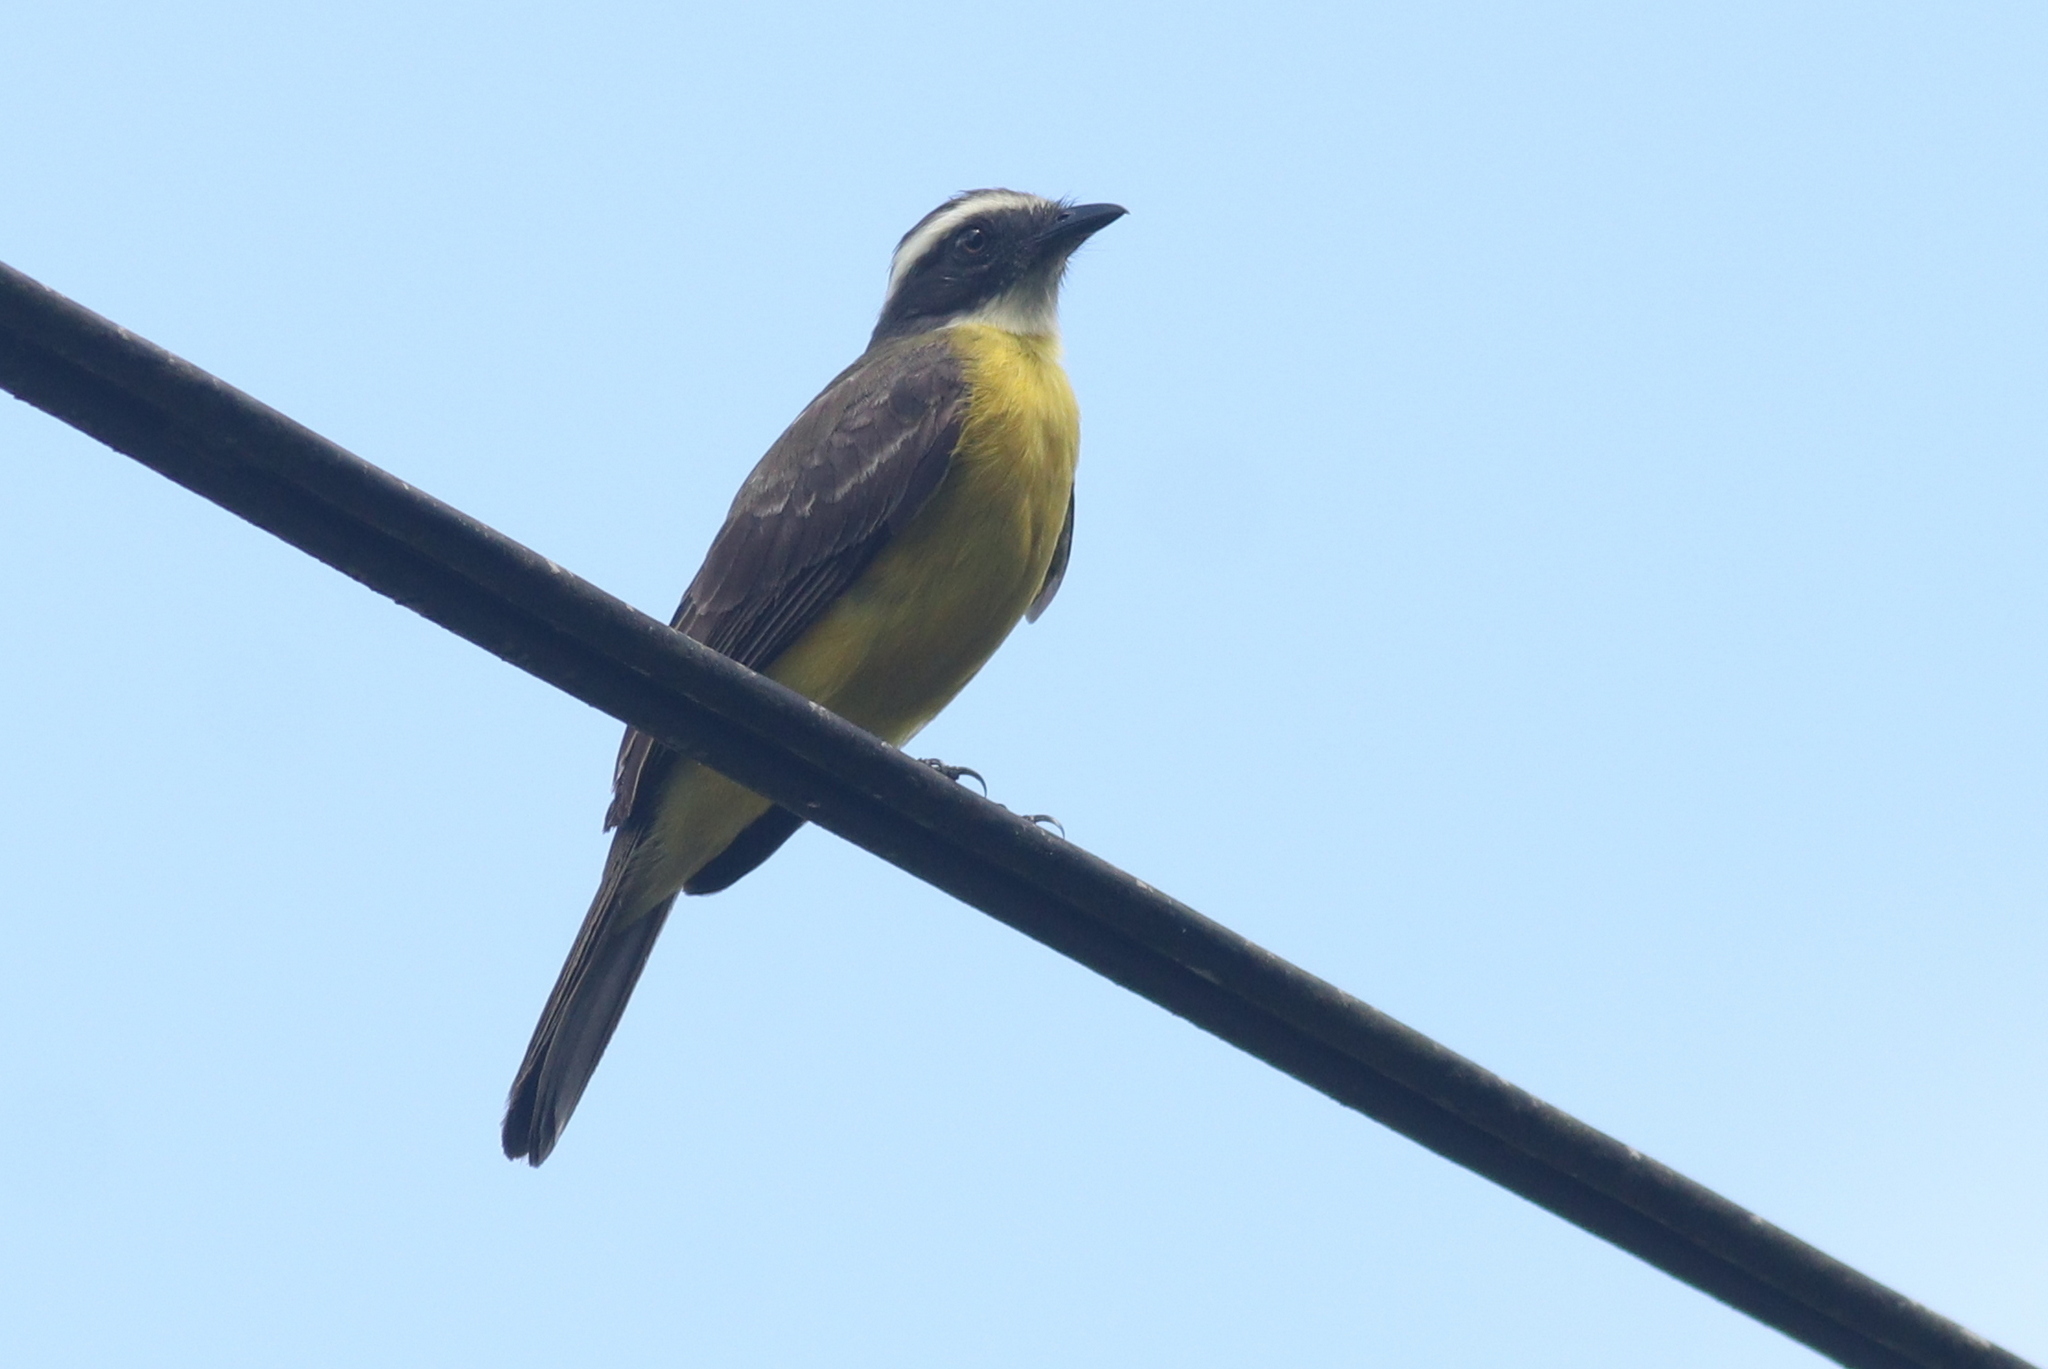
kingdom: Animalia
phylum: Chordata
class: Aves
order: Passeriformes
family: Tyrannidae
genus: Myiozetetes
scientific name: Myiozetetes similis
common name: Social flycatcher
